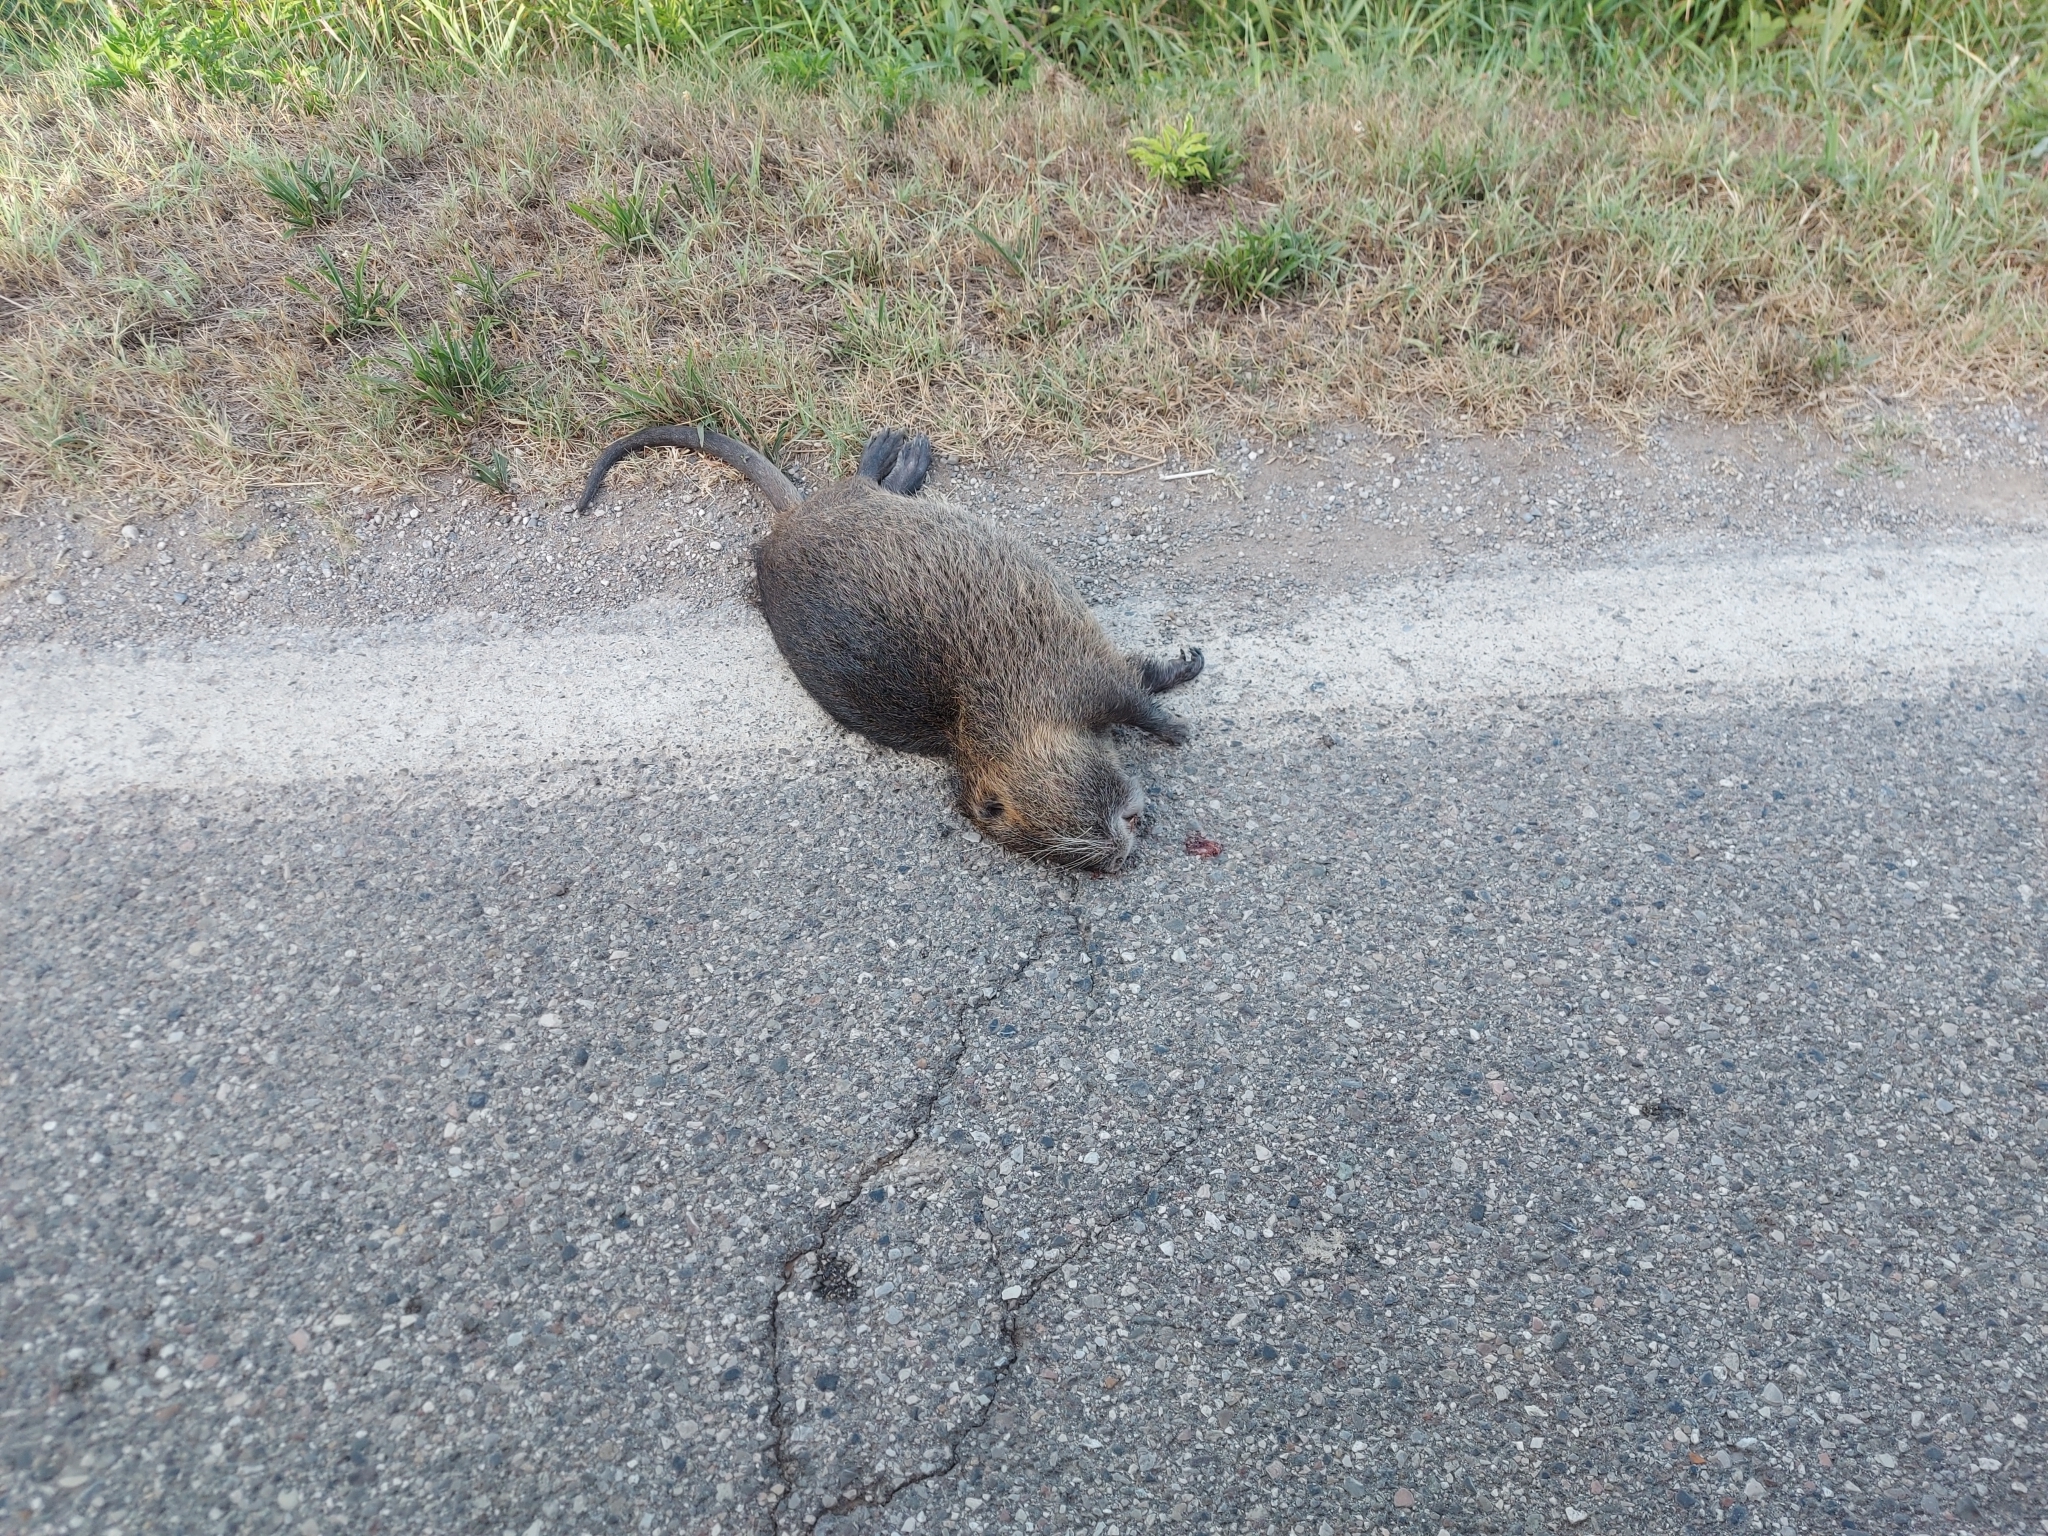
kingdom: Animalia
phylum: Chordata
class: Mammalia
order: Rodentia
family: Myocastoridae
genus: Myocastor
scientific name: Myocastor coypus
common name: Coypu
